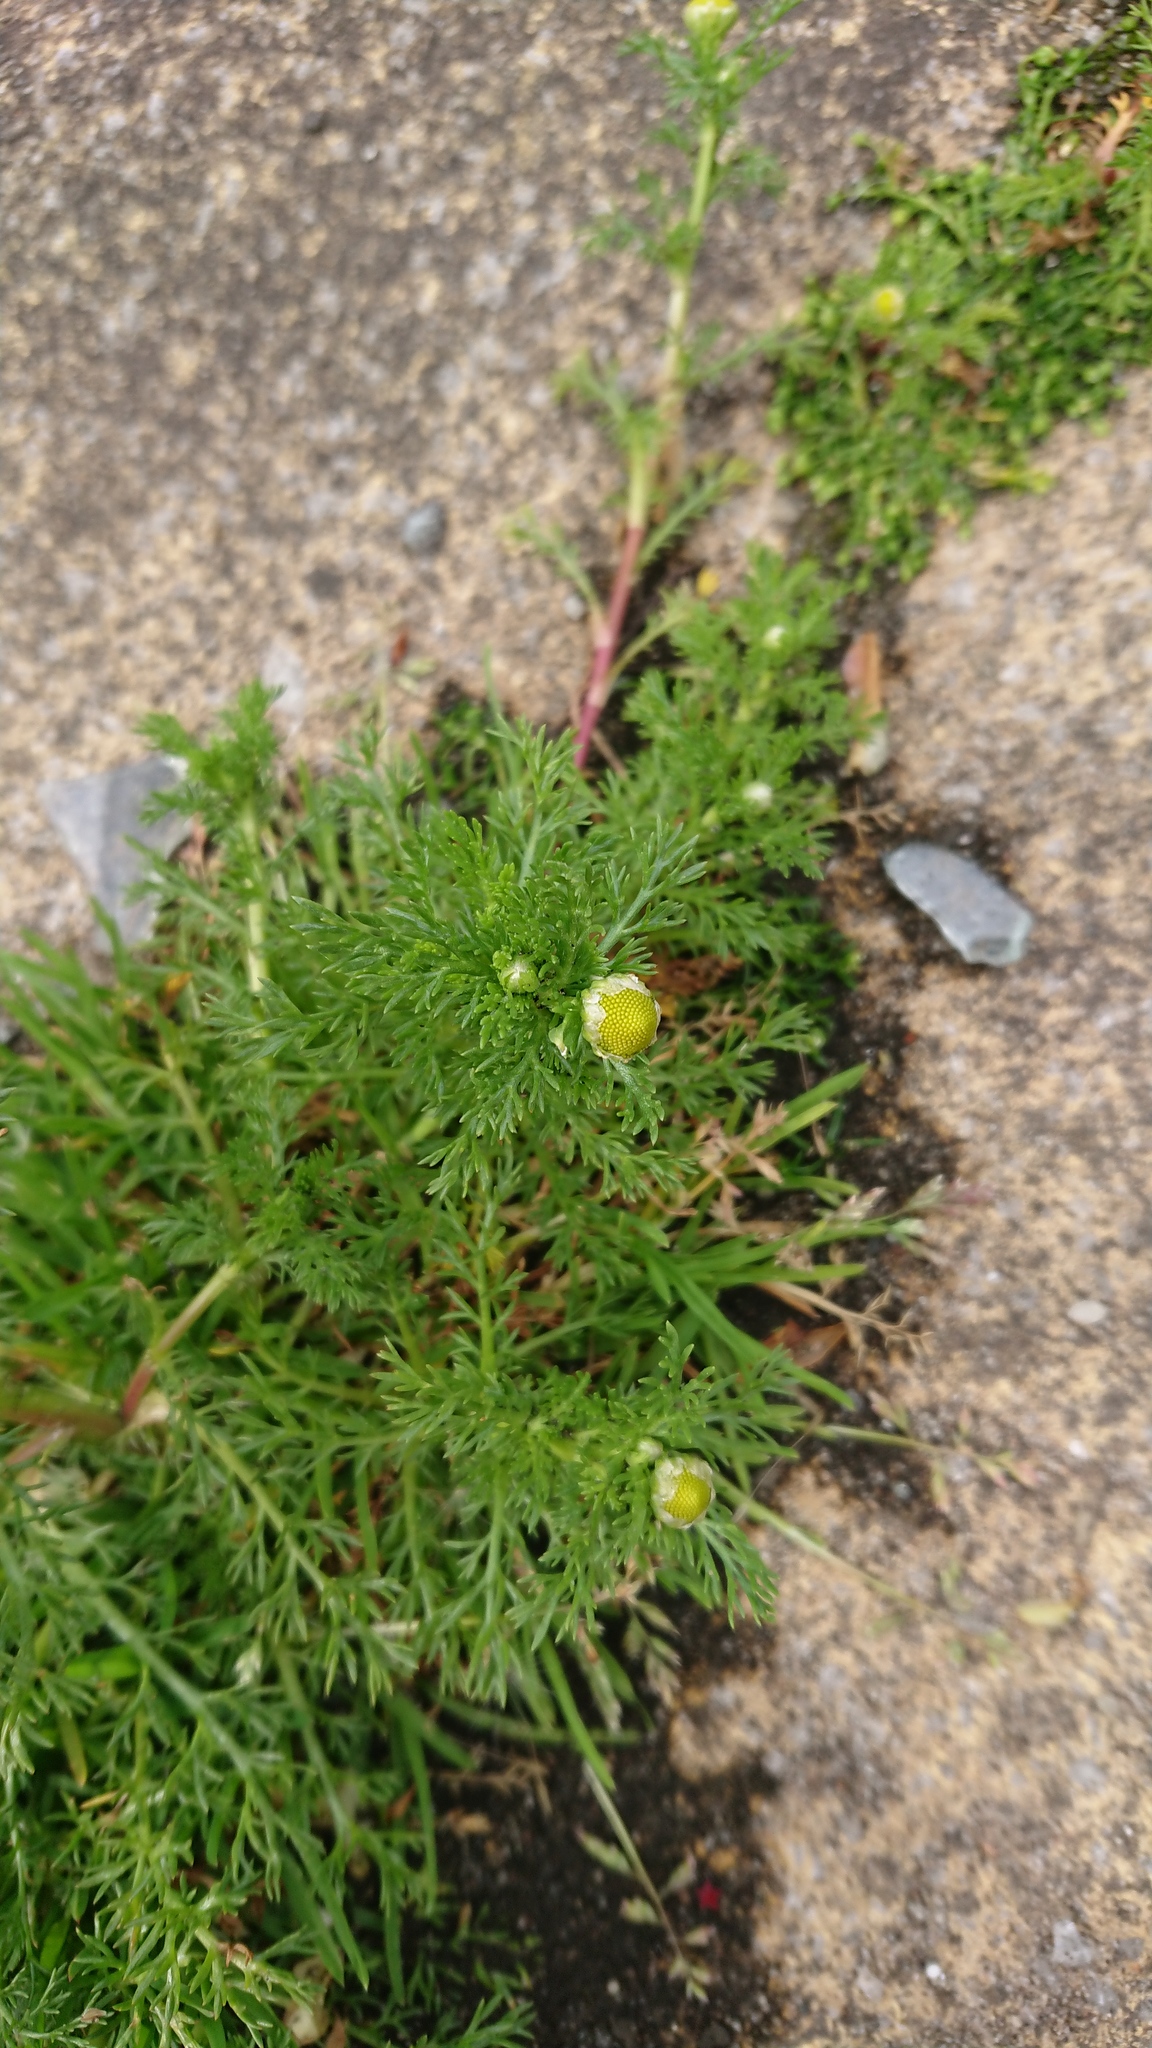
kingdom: Plantae
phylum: Tracheophyta
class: Magnoliopsida
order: Asterales
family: Asteraceae
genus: Matricaria
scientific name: Matricaria discoidea
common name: Disc mayweed
